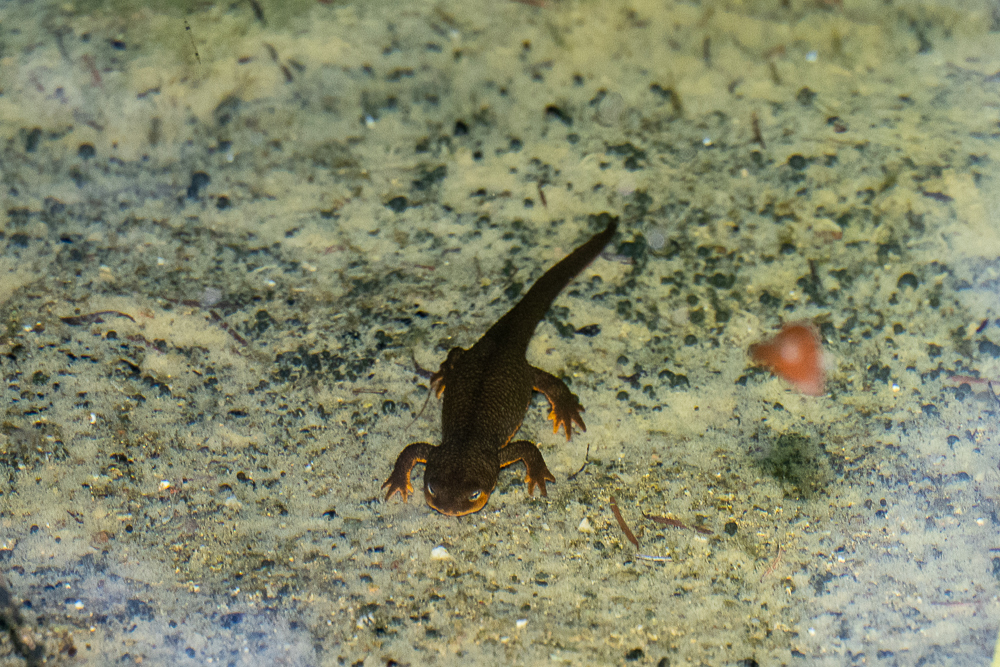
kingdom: Animalia
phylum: Chordata
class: Amphibia
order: Caudata
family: Salamandridae
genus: Taricha
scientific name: Taricha granulosa
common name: Roughskin newt
